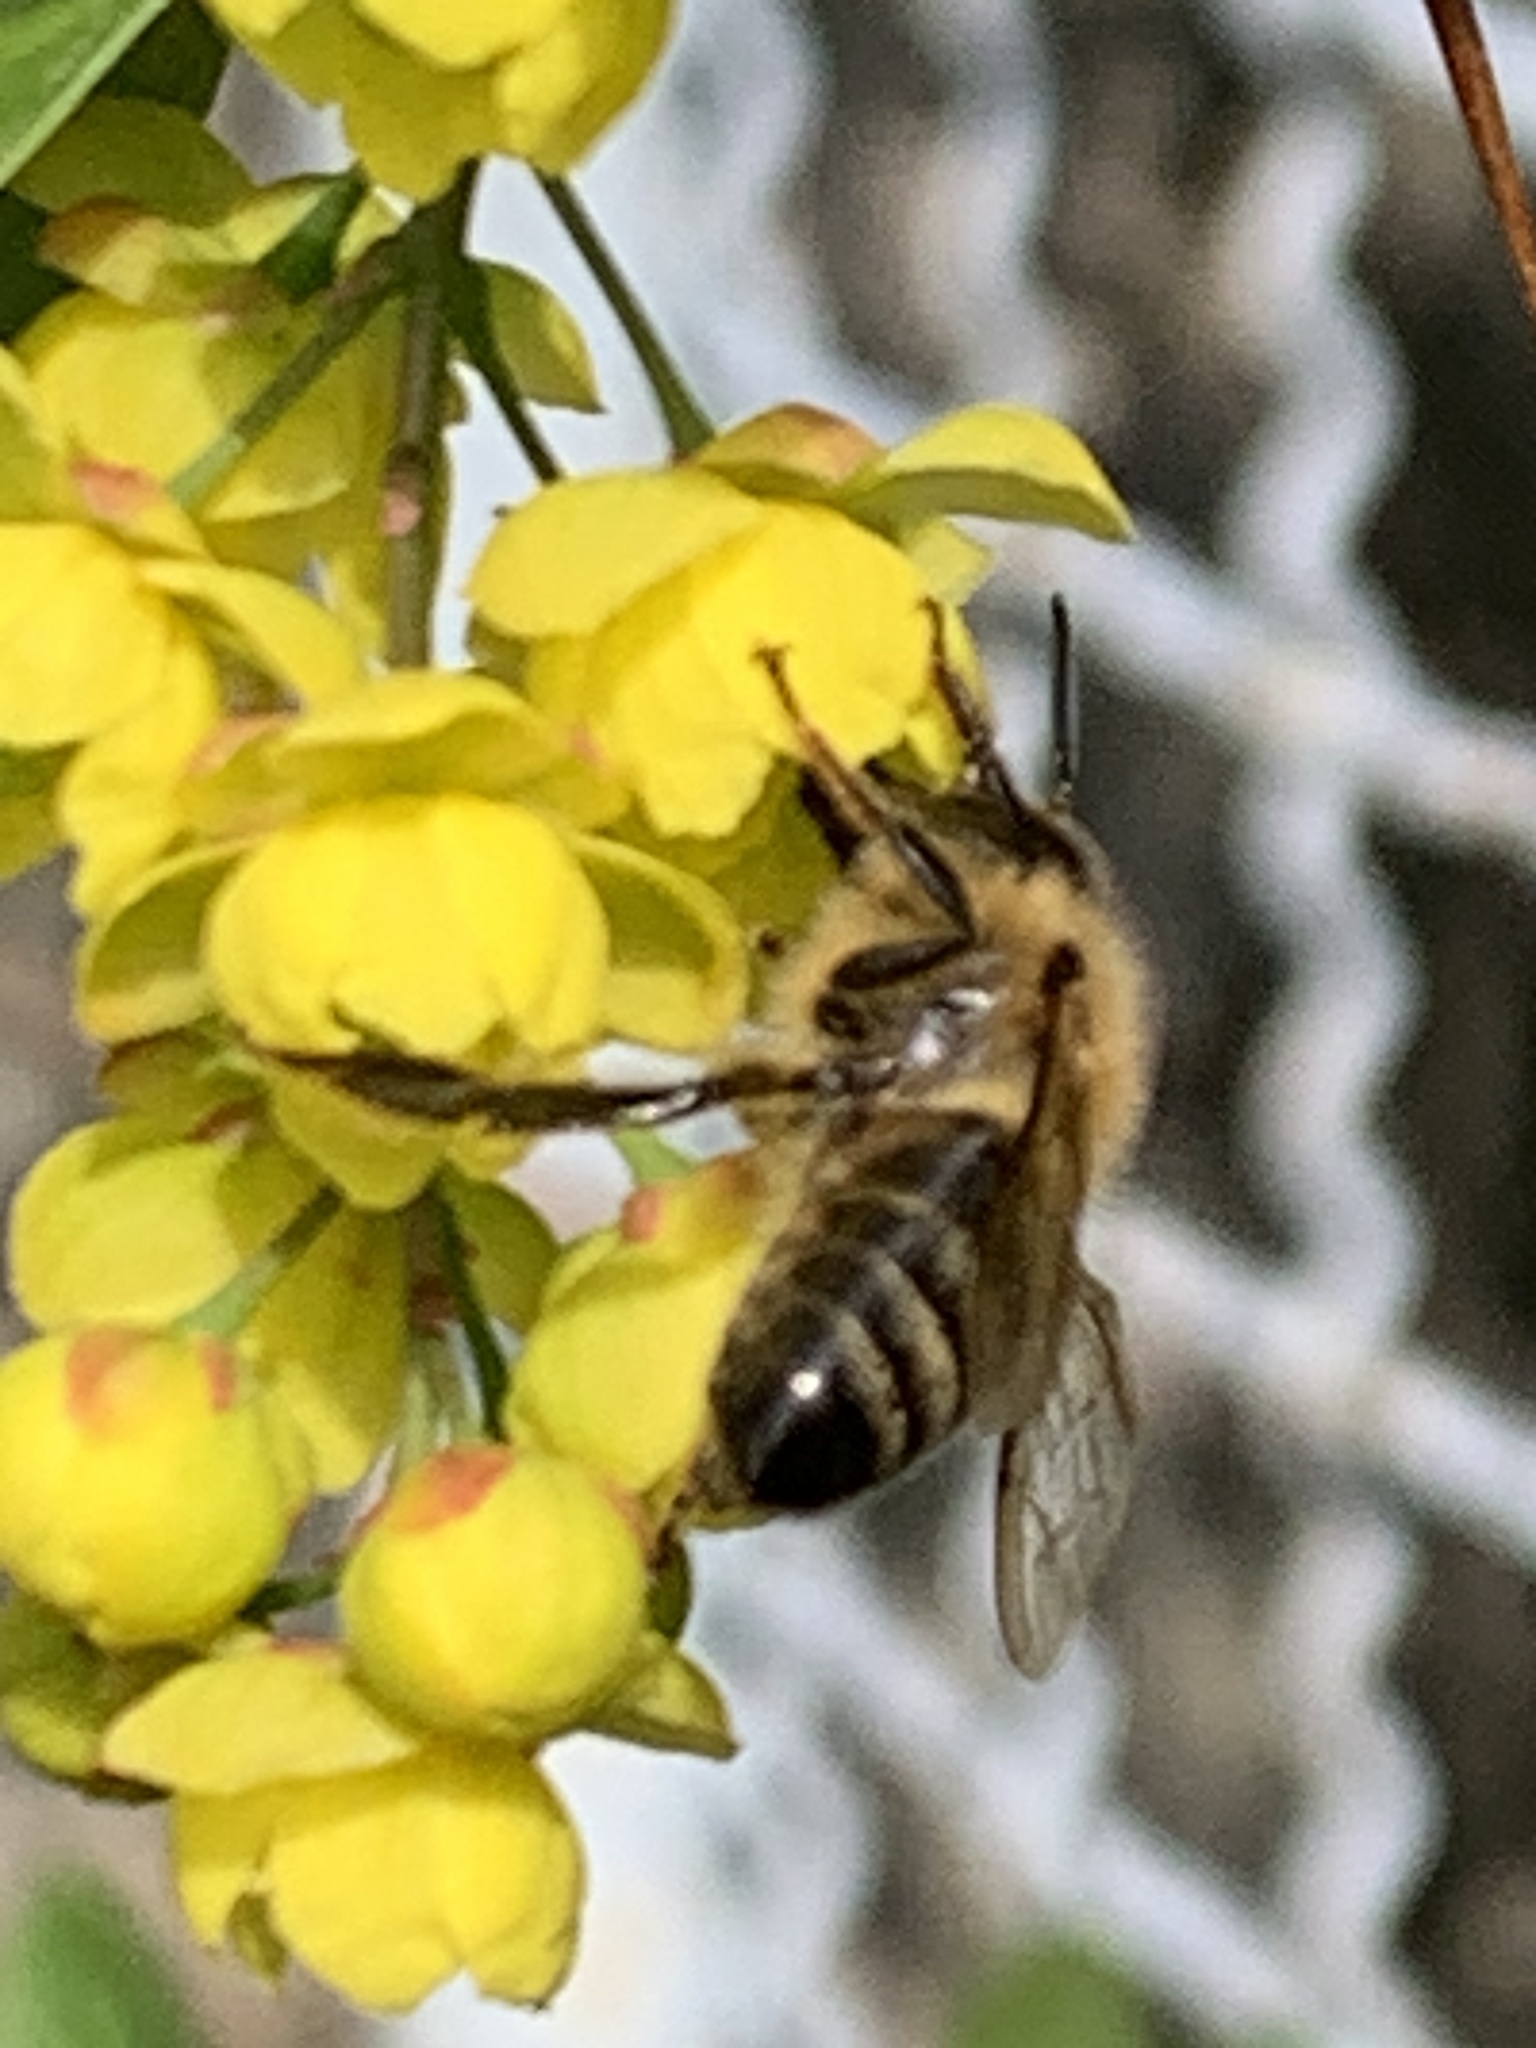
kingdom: Animalia
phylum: Arthropoda
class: Insecta
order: Hymenoptera
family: Apidae
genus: Apis
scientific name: Apis mellifera
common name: Honey bee
